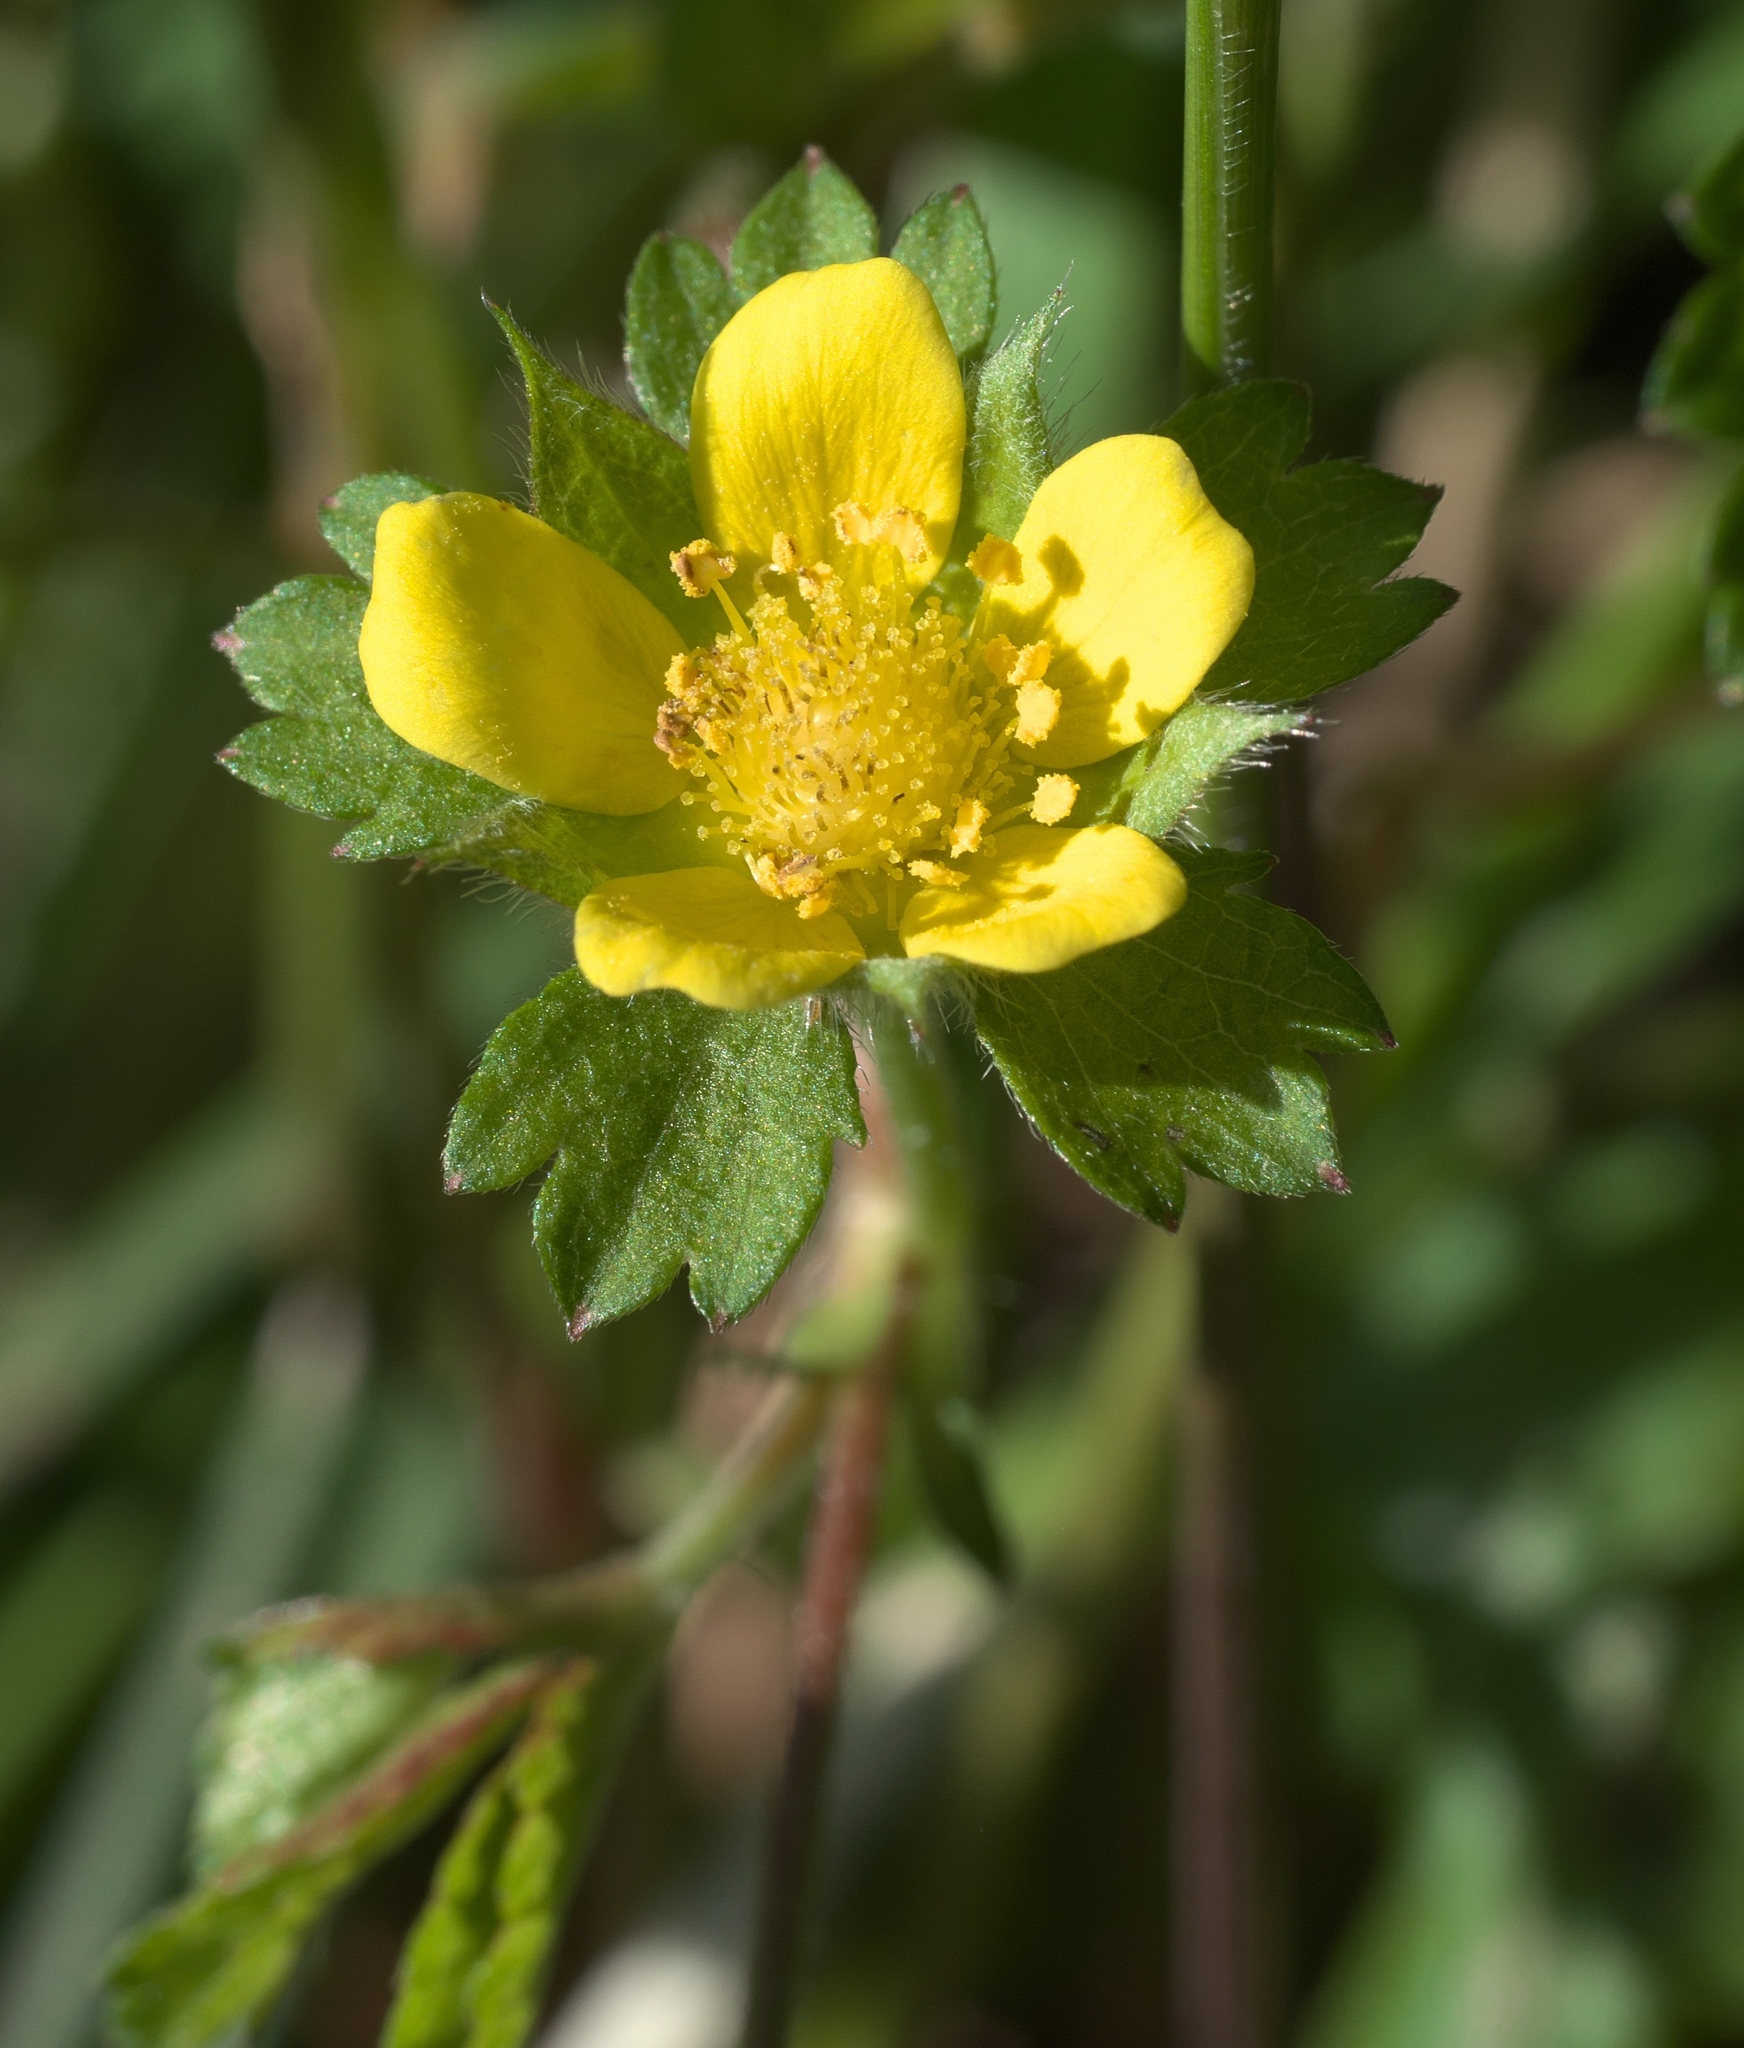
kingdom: Plantae
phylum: Tracheophyta
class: Magnoliopsida
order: Rosales
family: Rosaceae
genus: Potentilla
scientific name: Potentilla indica
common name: Yellow-flowered strawberry
